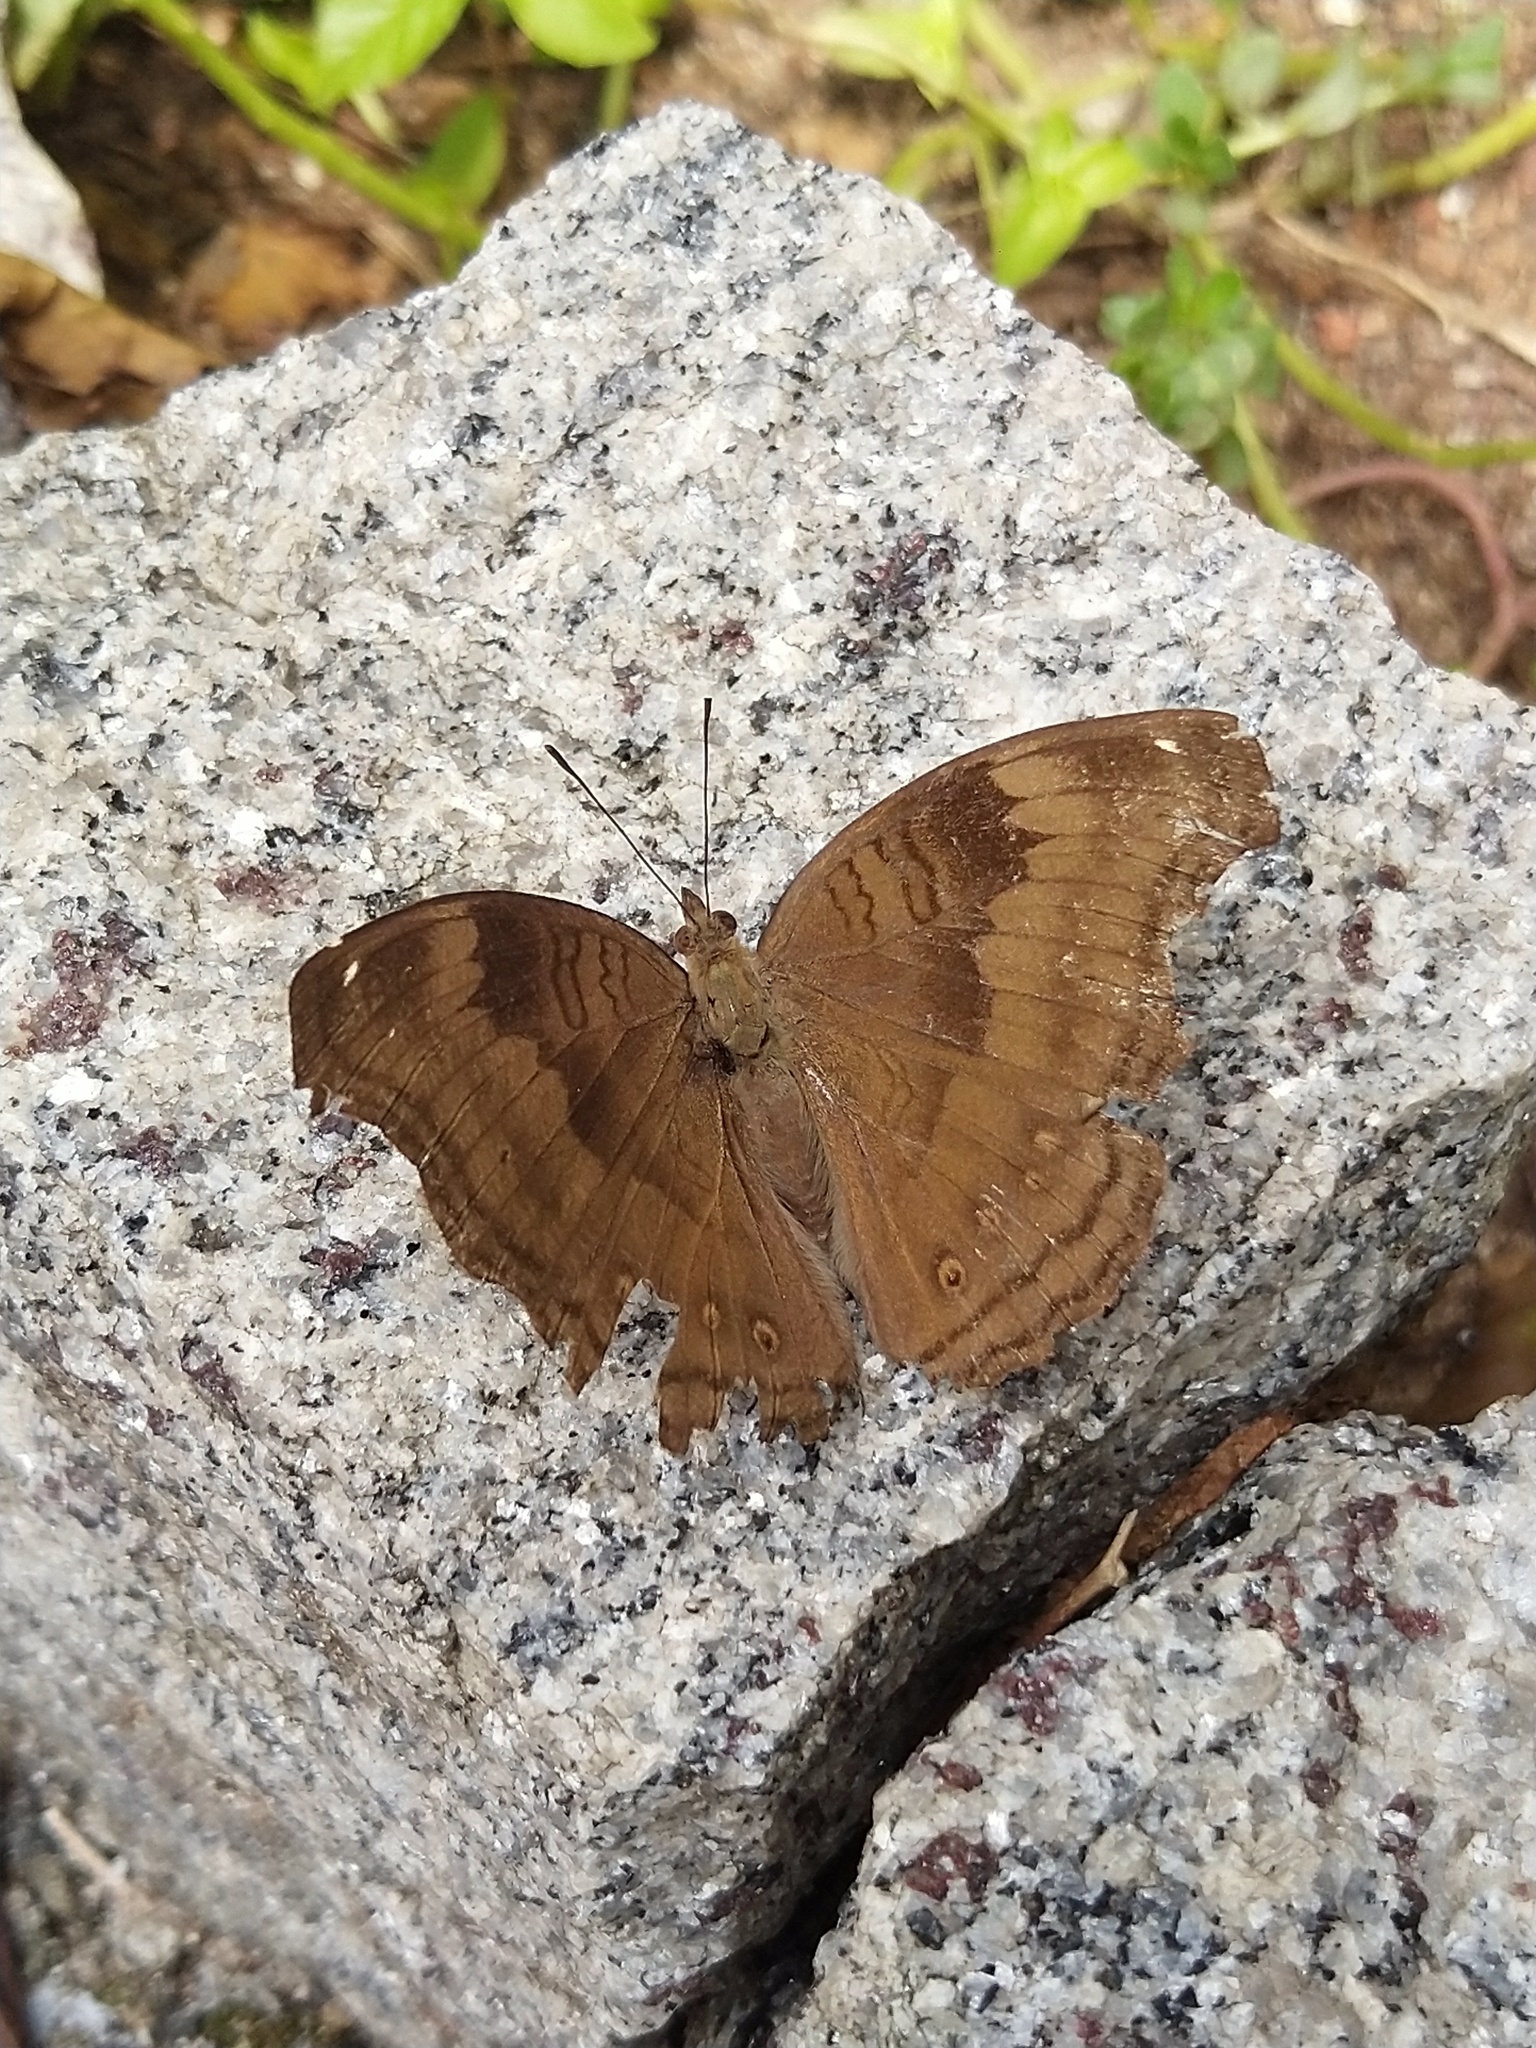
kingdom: Animalia
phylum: Arthropoda
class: Insecta
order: Lepidoptera
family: Nymphalidae
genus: Junonia
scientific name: Junonia iphita
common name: Chocolate pansy
